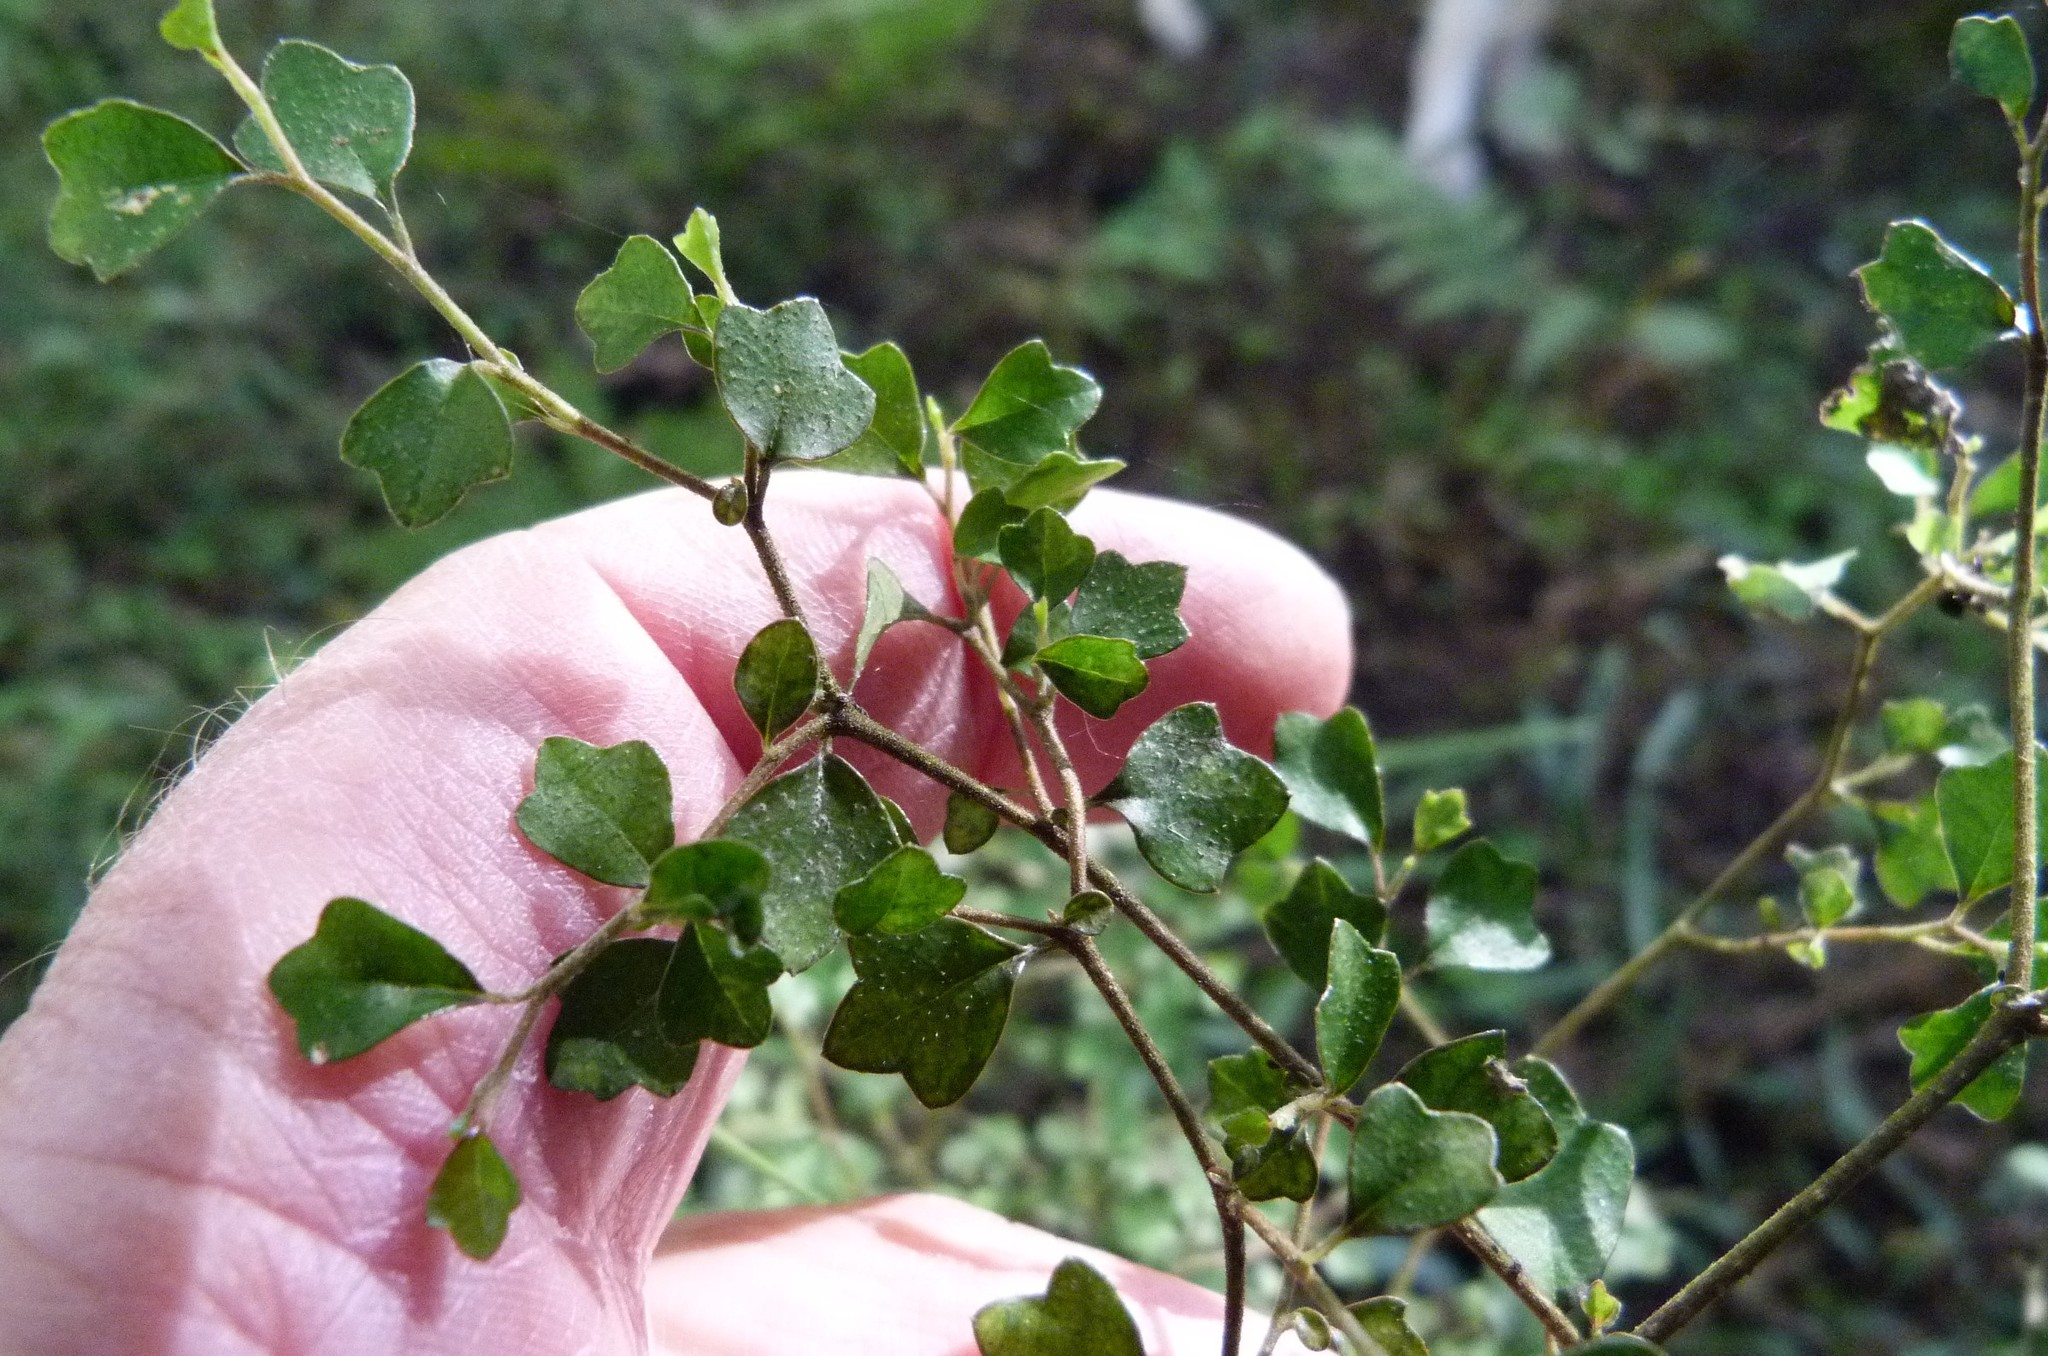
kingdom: Plantae
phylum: Tracheophyta
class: Magnoliopsida
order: Apiales
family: Pennantiaceae
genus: Pennantia
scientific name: Pennantia corymbosa
